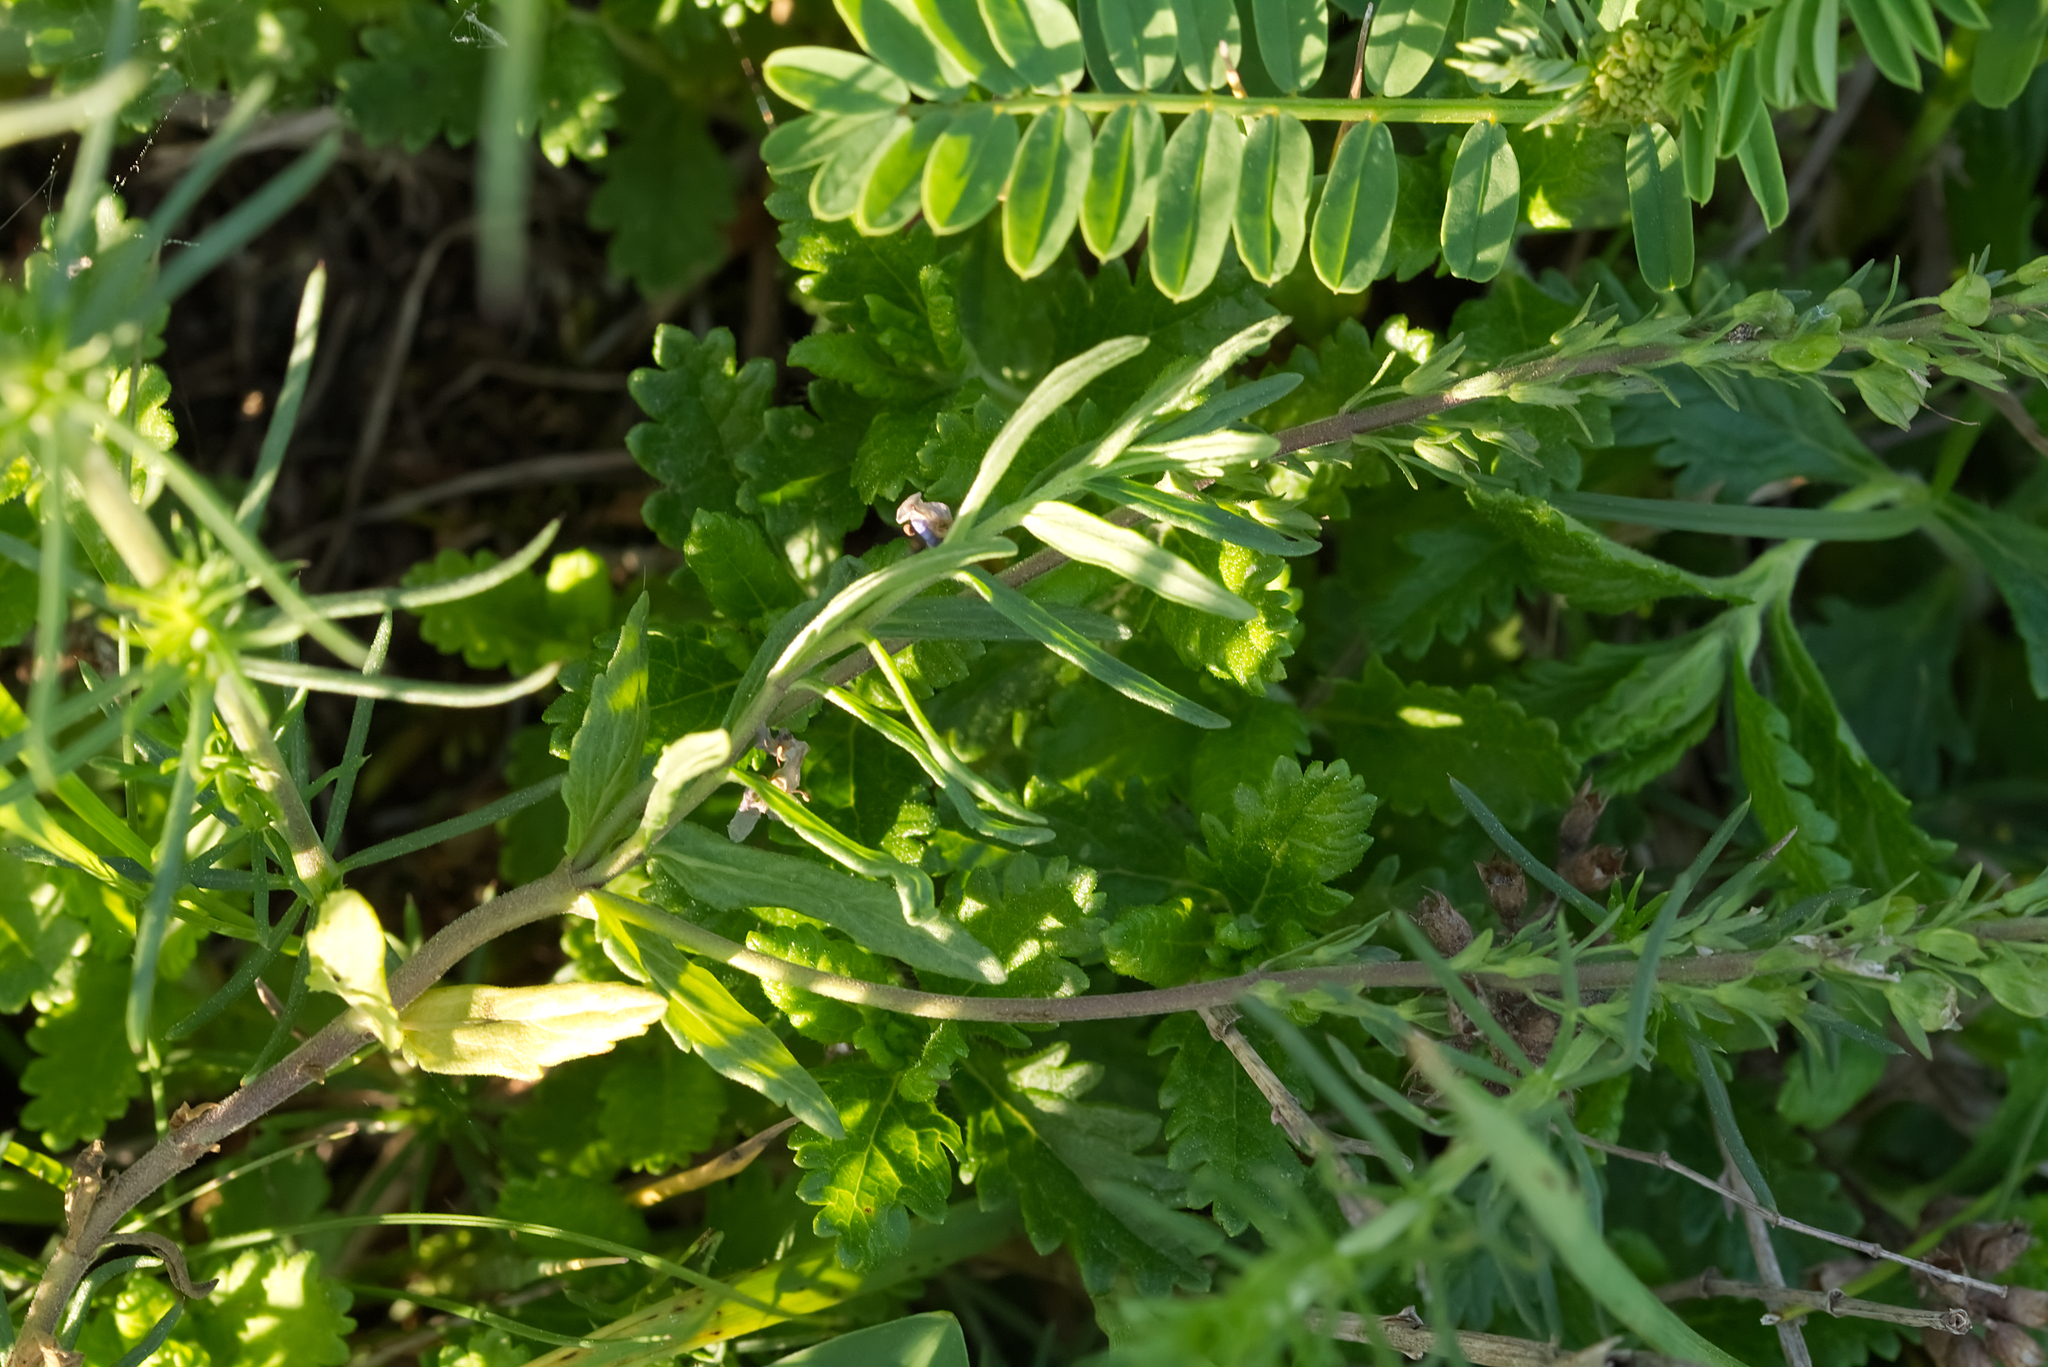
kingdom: Plantae
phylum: Tracheophyta
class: Magnoliopsida
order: Lamiales
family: Plantaginaceae
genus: Veronica
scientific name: Veronica prostrata
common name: Prostrate speedwell
